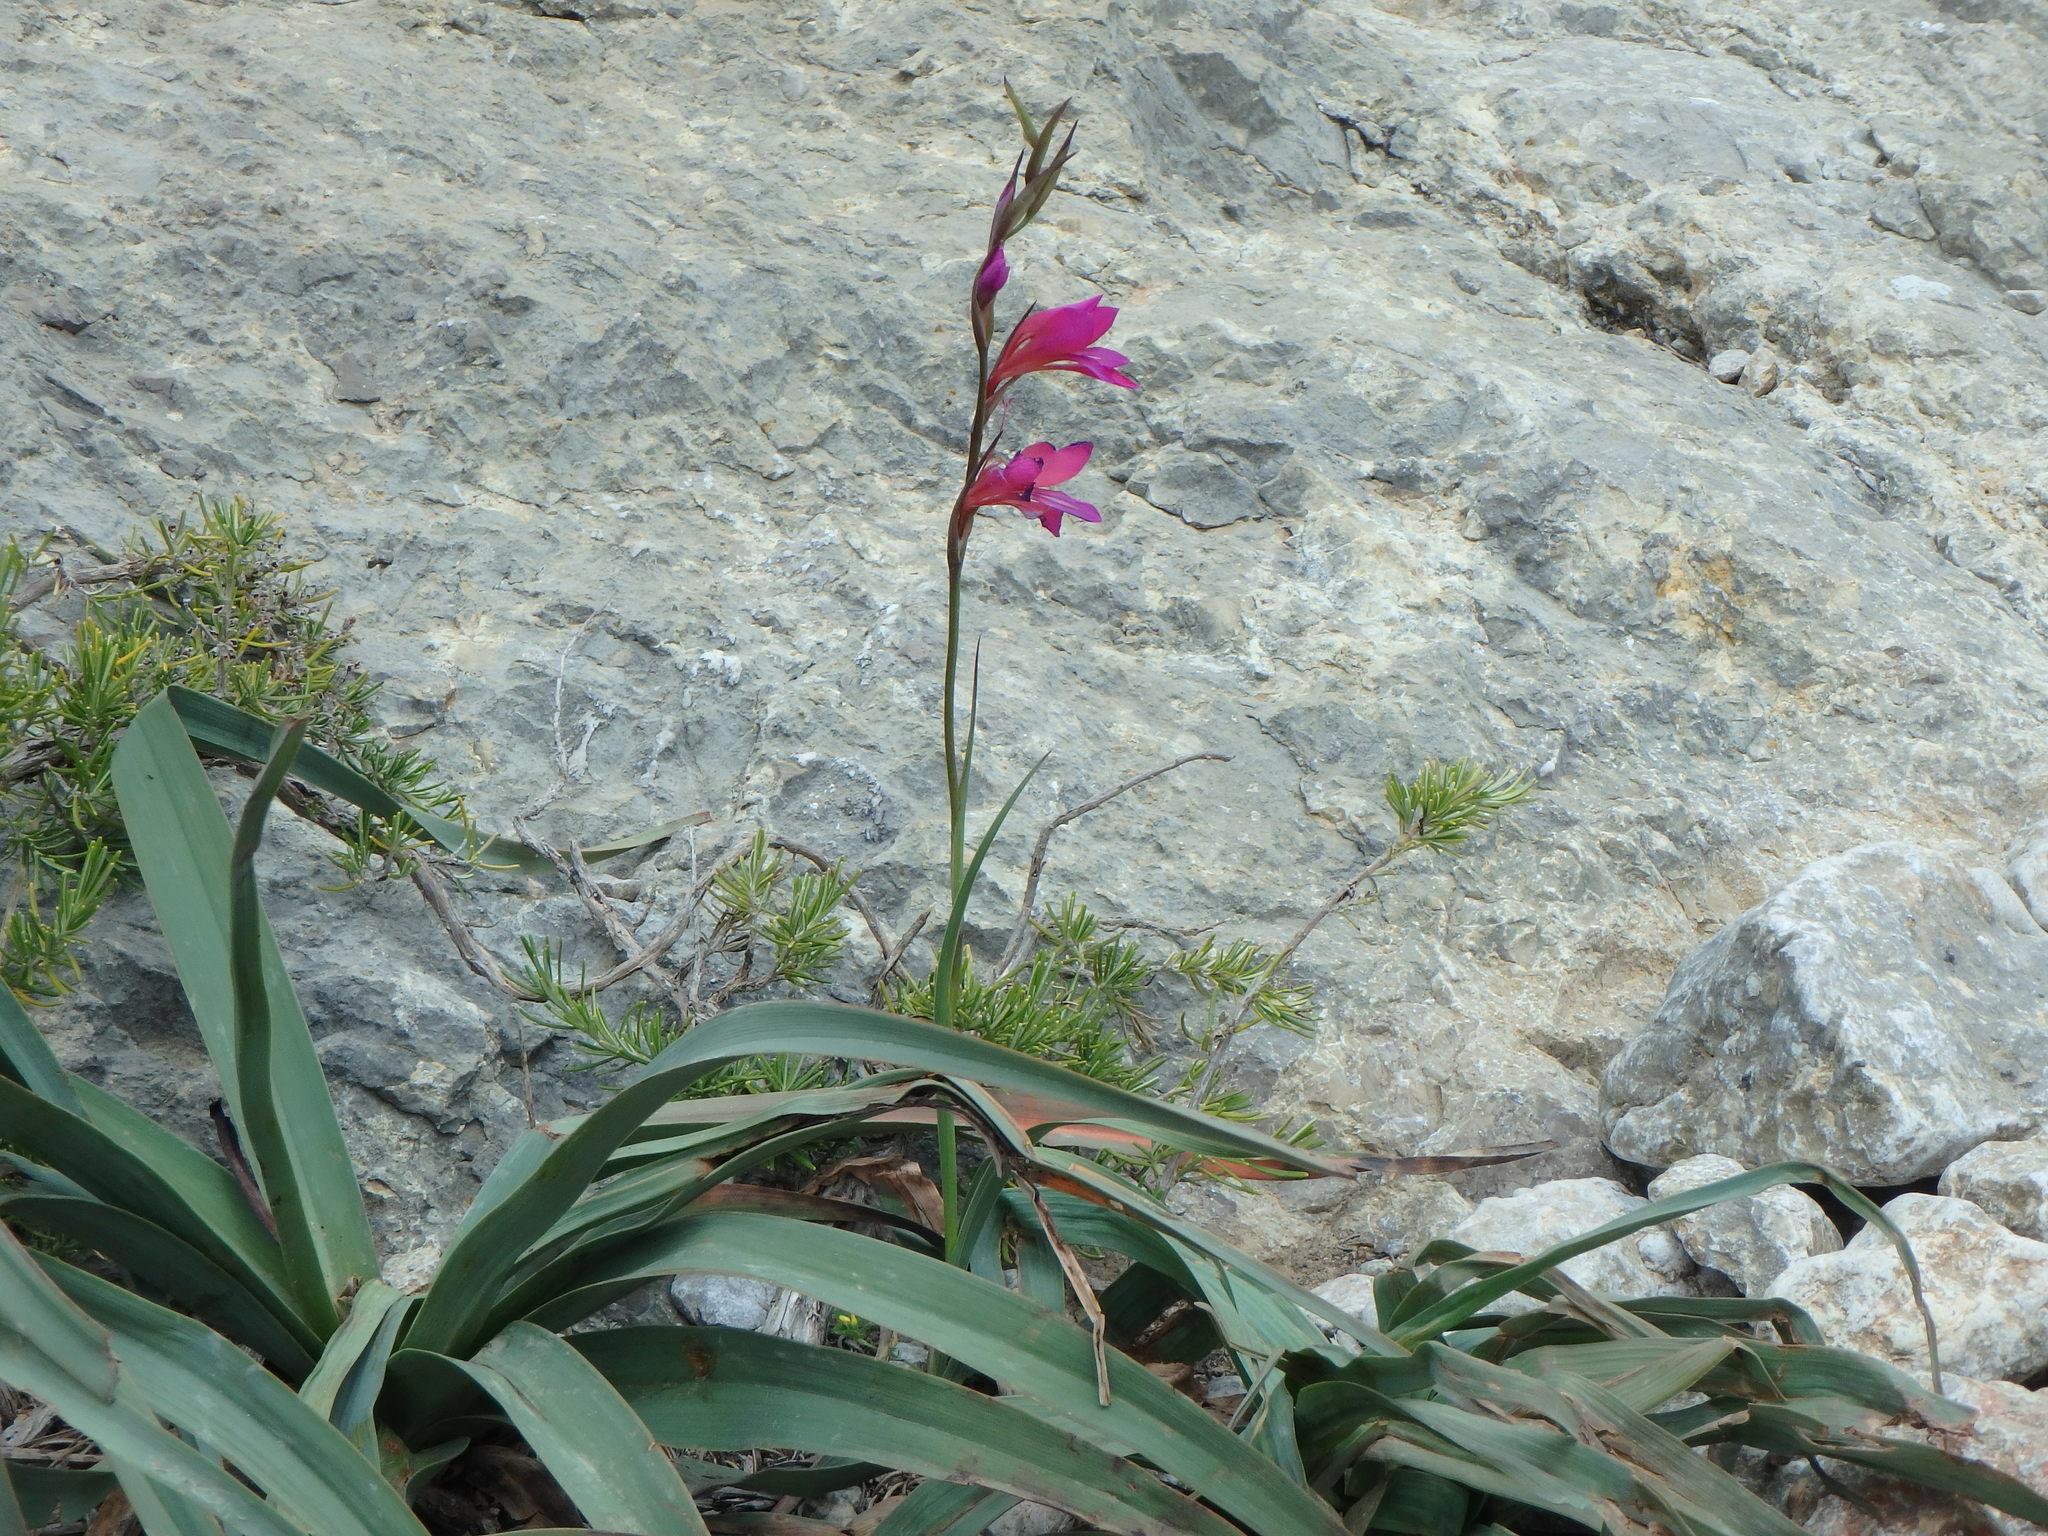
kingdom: Plantae
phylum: Tracheophyta
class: Liliopsida
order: Asparagales
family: Iridaceae
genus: Gladiolus
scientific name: Gladiolus italicus
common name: Field gladiolus
